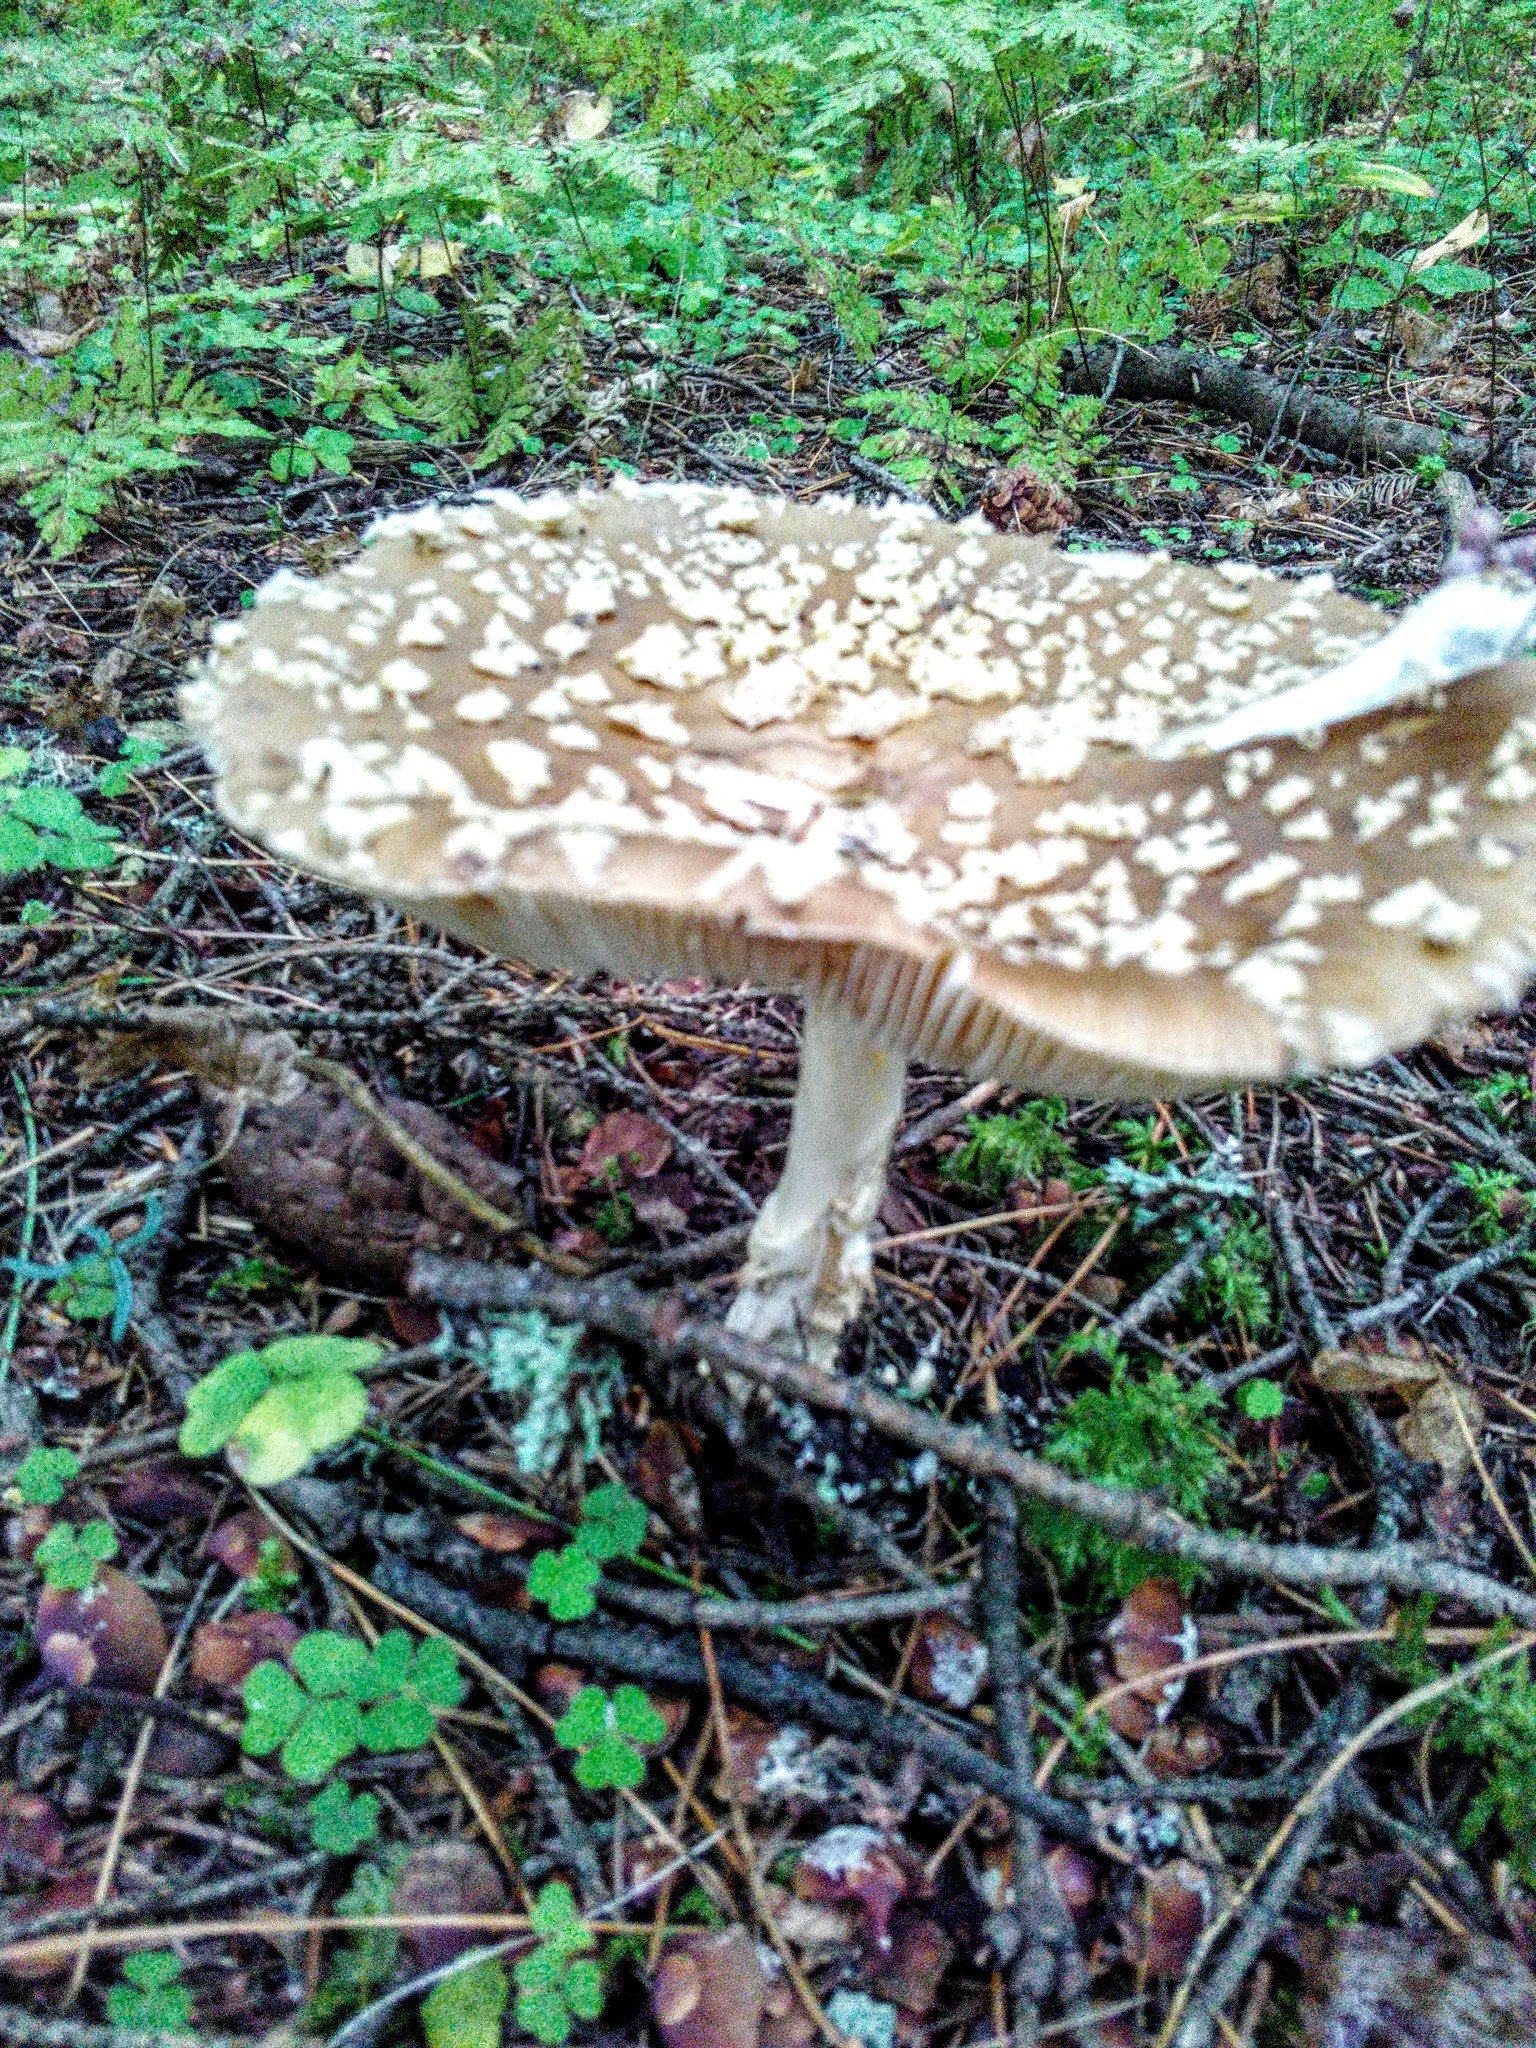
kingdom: Fungi
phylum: Basidiomycota
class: Agaricomycetes
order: Agaricales
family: Amanitaceae
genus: Amanita
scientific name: Amanita pantherina
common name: Panthercap
